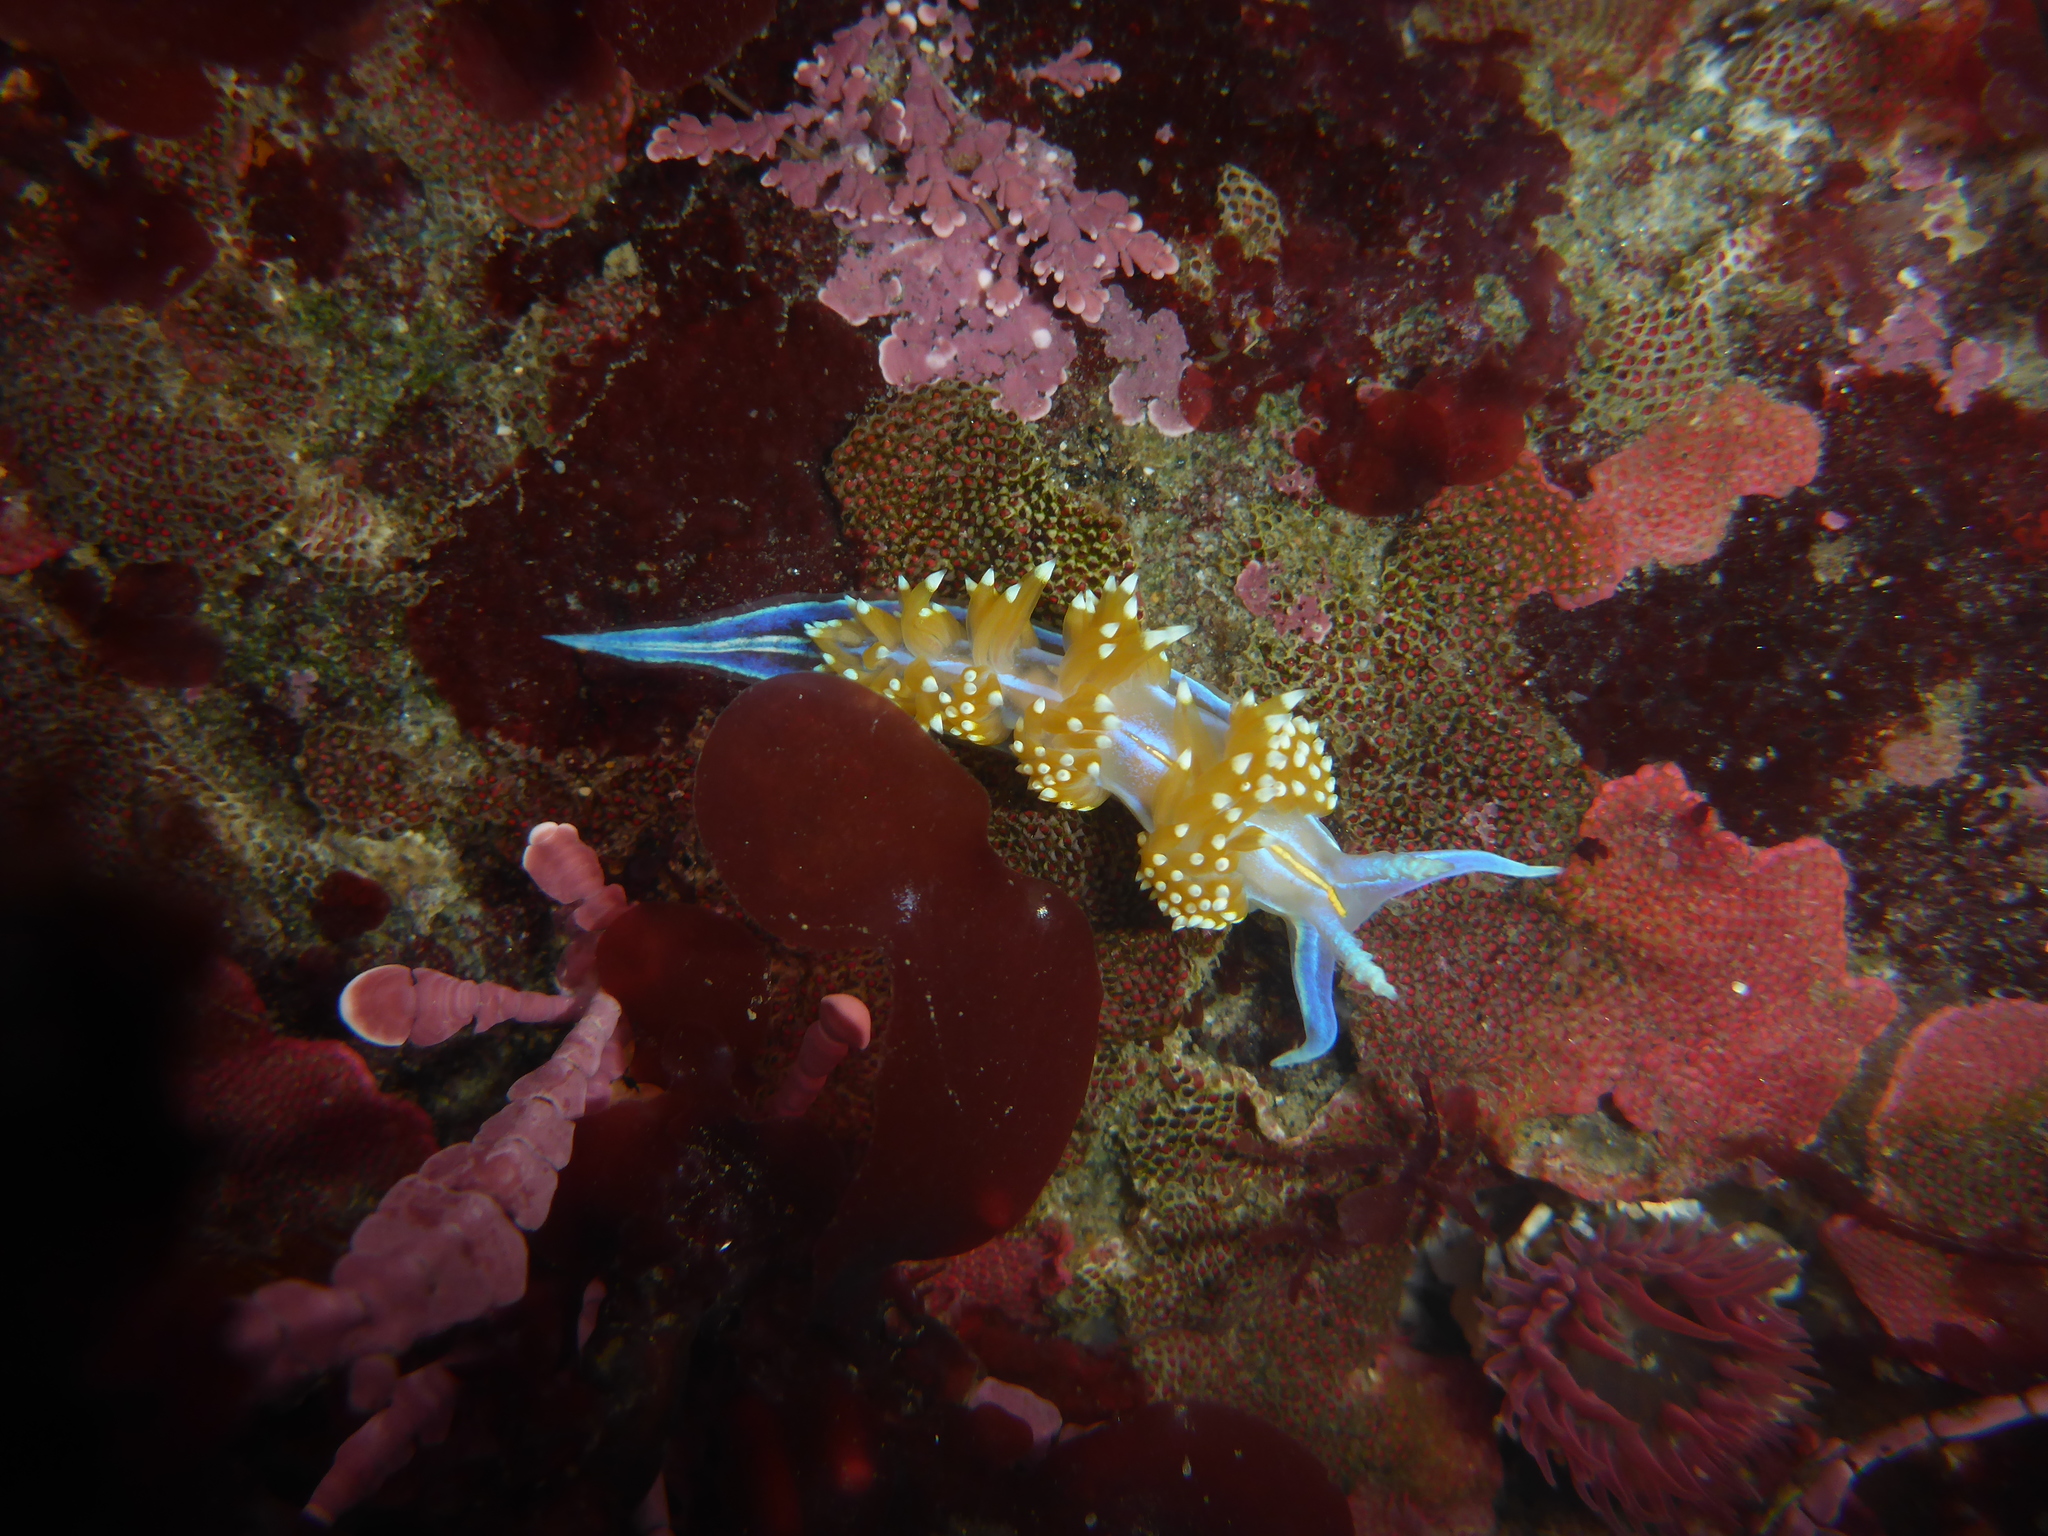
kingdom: Animalia
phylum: Mollusca
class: Gastropoda
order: Nudibranchia
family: Myrrhinidae
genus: Hermissenda
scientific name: Hermissenda opalescens
